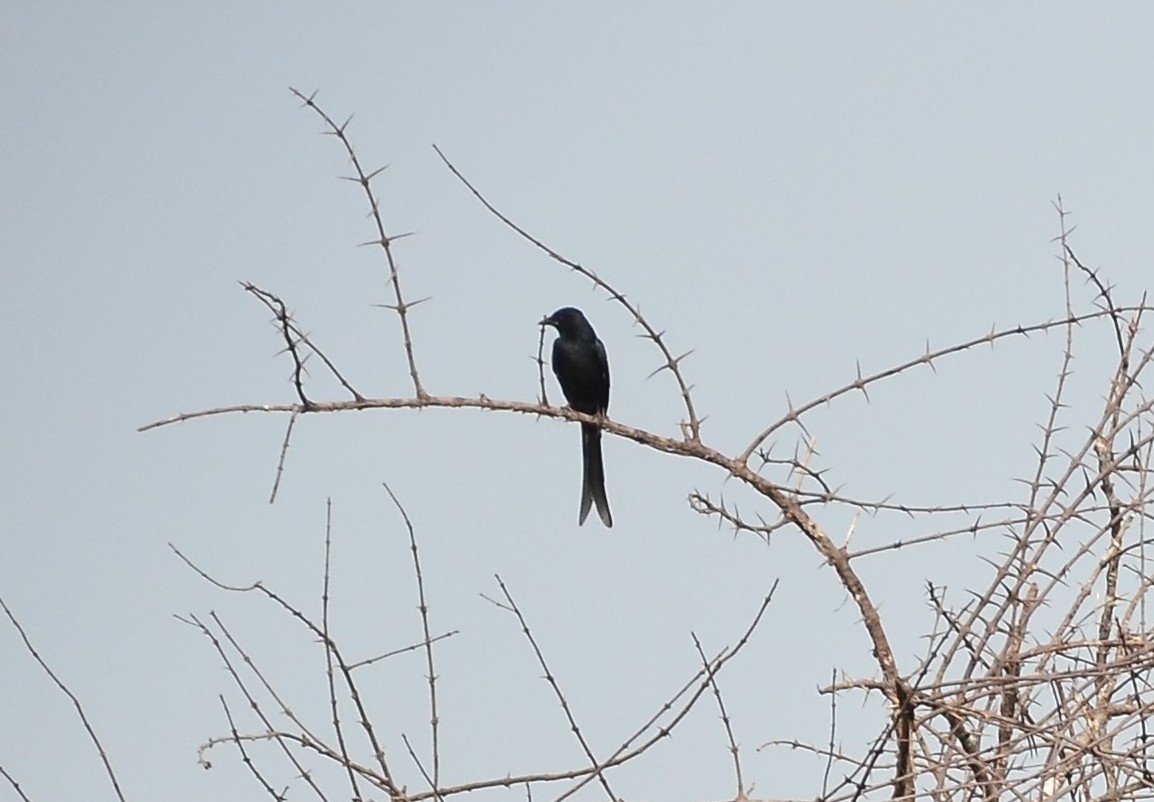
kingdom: Animalia
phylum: Chordata
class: Aves
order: Passeriformes
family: Dicruridae
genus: Dicrurus
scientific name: Dicrurus macrocercus
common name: Black drongo
